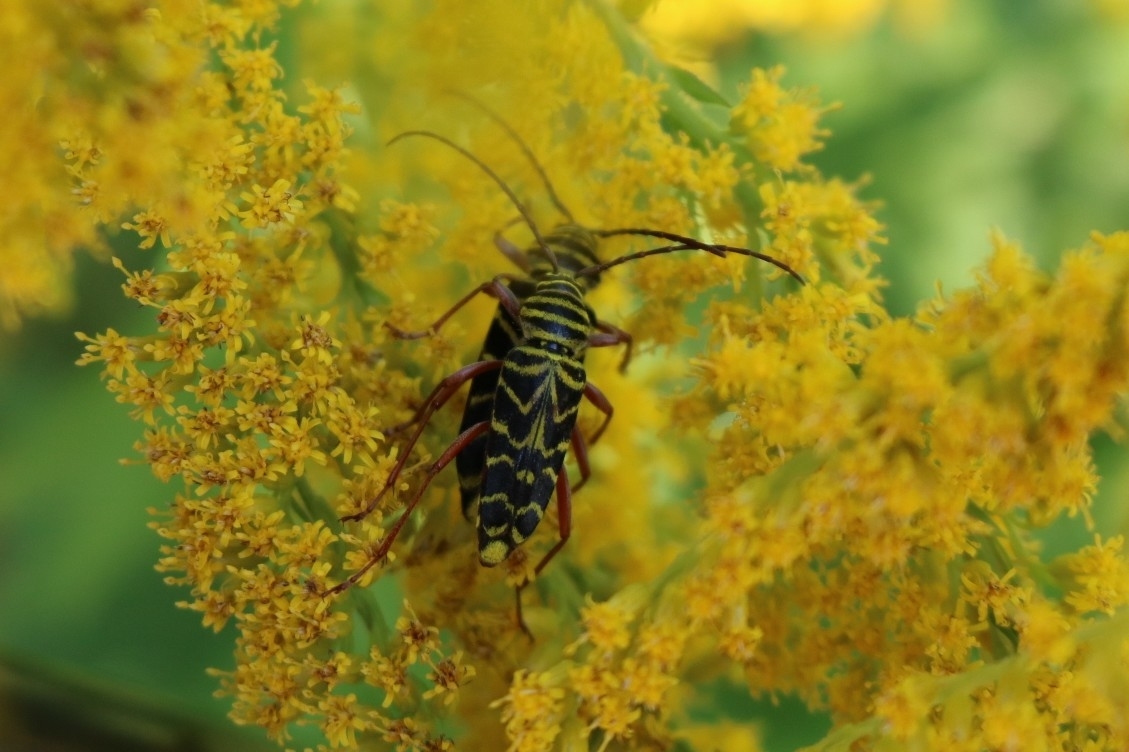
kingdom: Animalia
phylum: Arthropoda
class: Insecta
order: Coleoptera
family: Cerambycidae
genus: Megacyllene
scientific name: Megacyllene robiniae
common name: Locust borer
